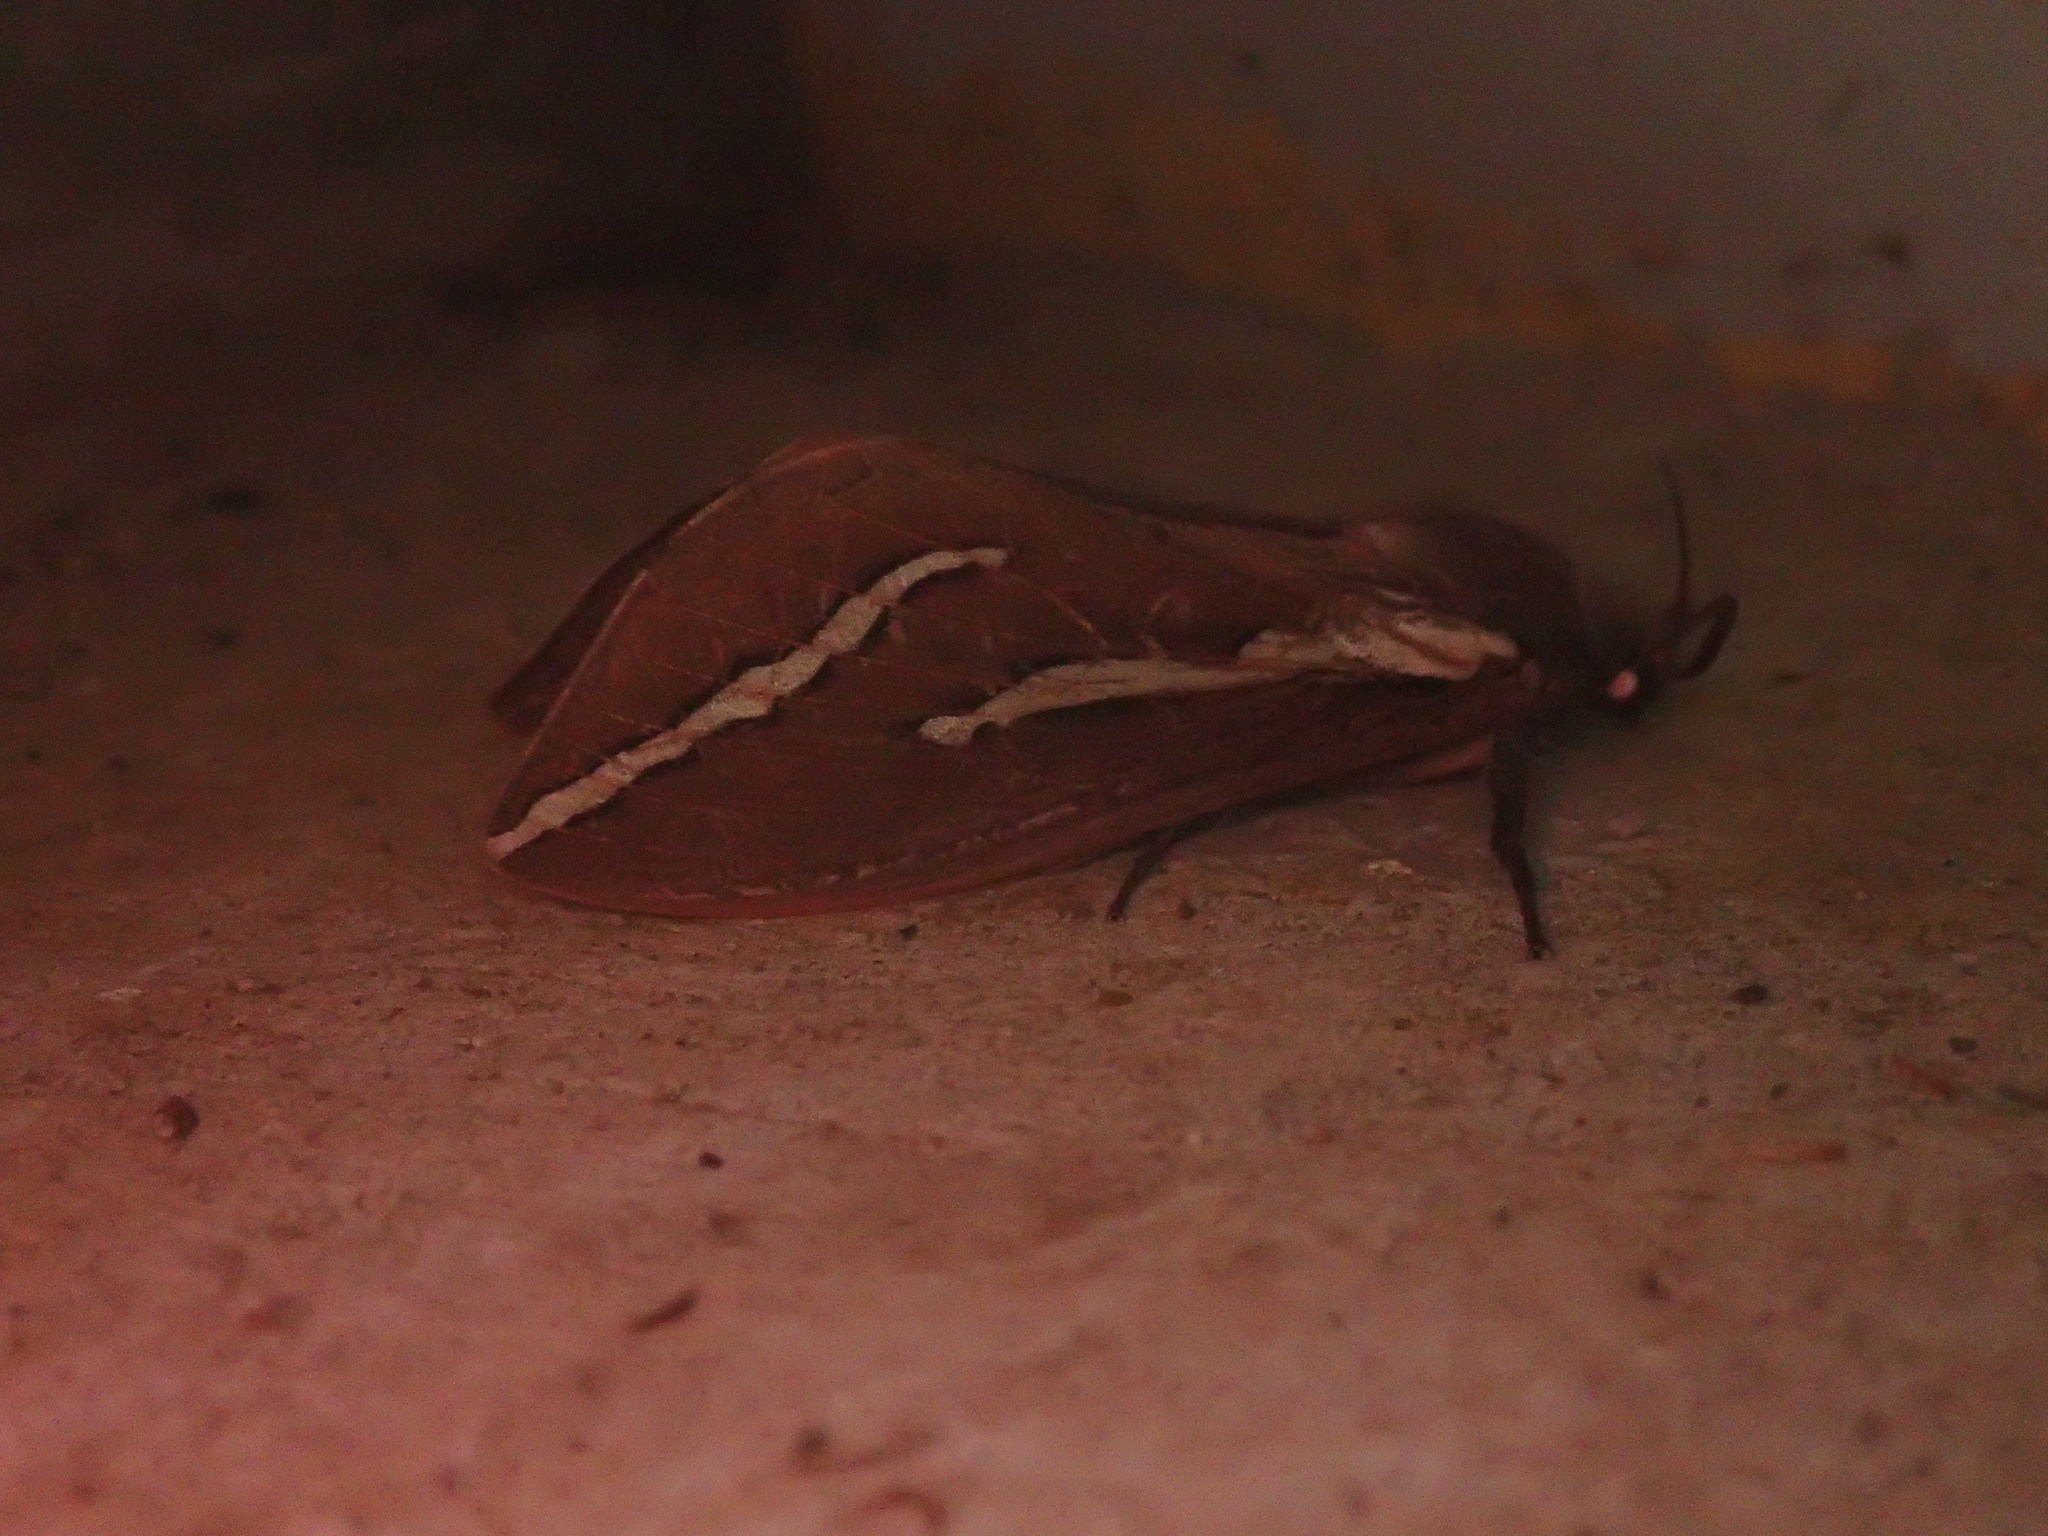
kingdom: Animalia
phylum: Arthropoda
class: Insecta
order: Lepidoptera
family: Hepialidae
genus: Abantiades
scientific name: Abantiades latipennis
